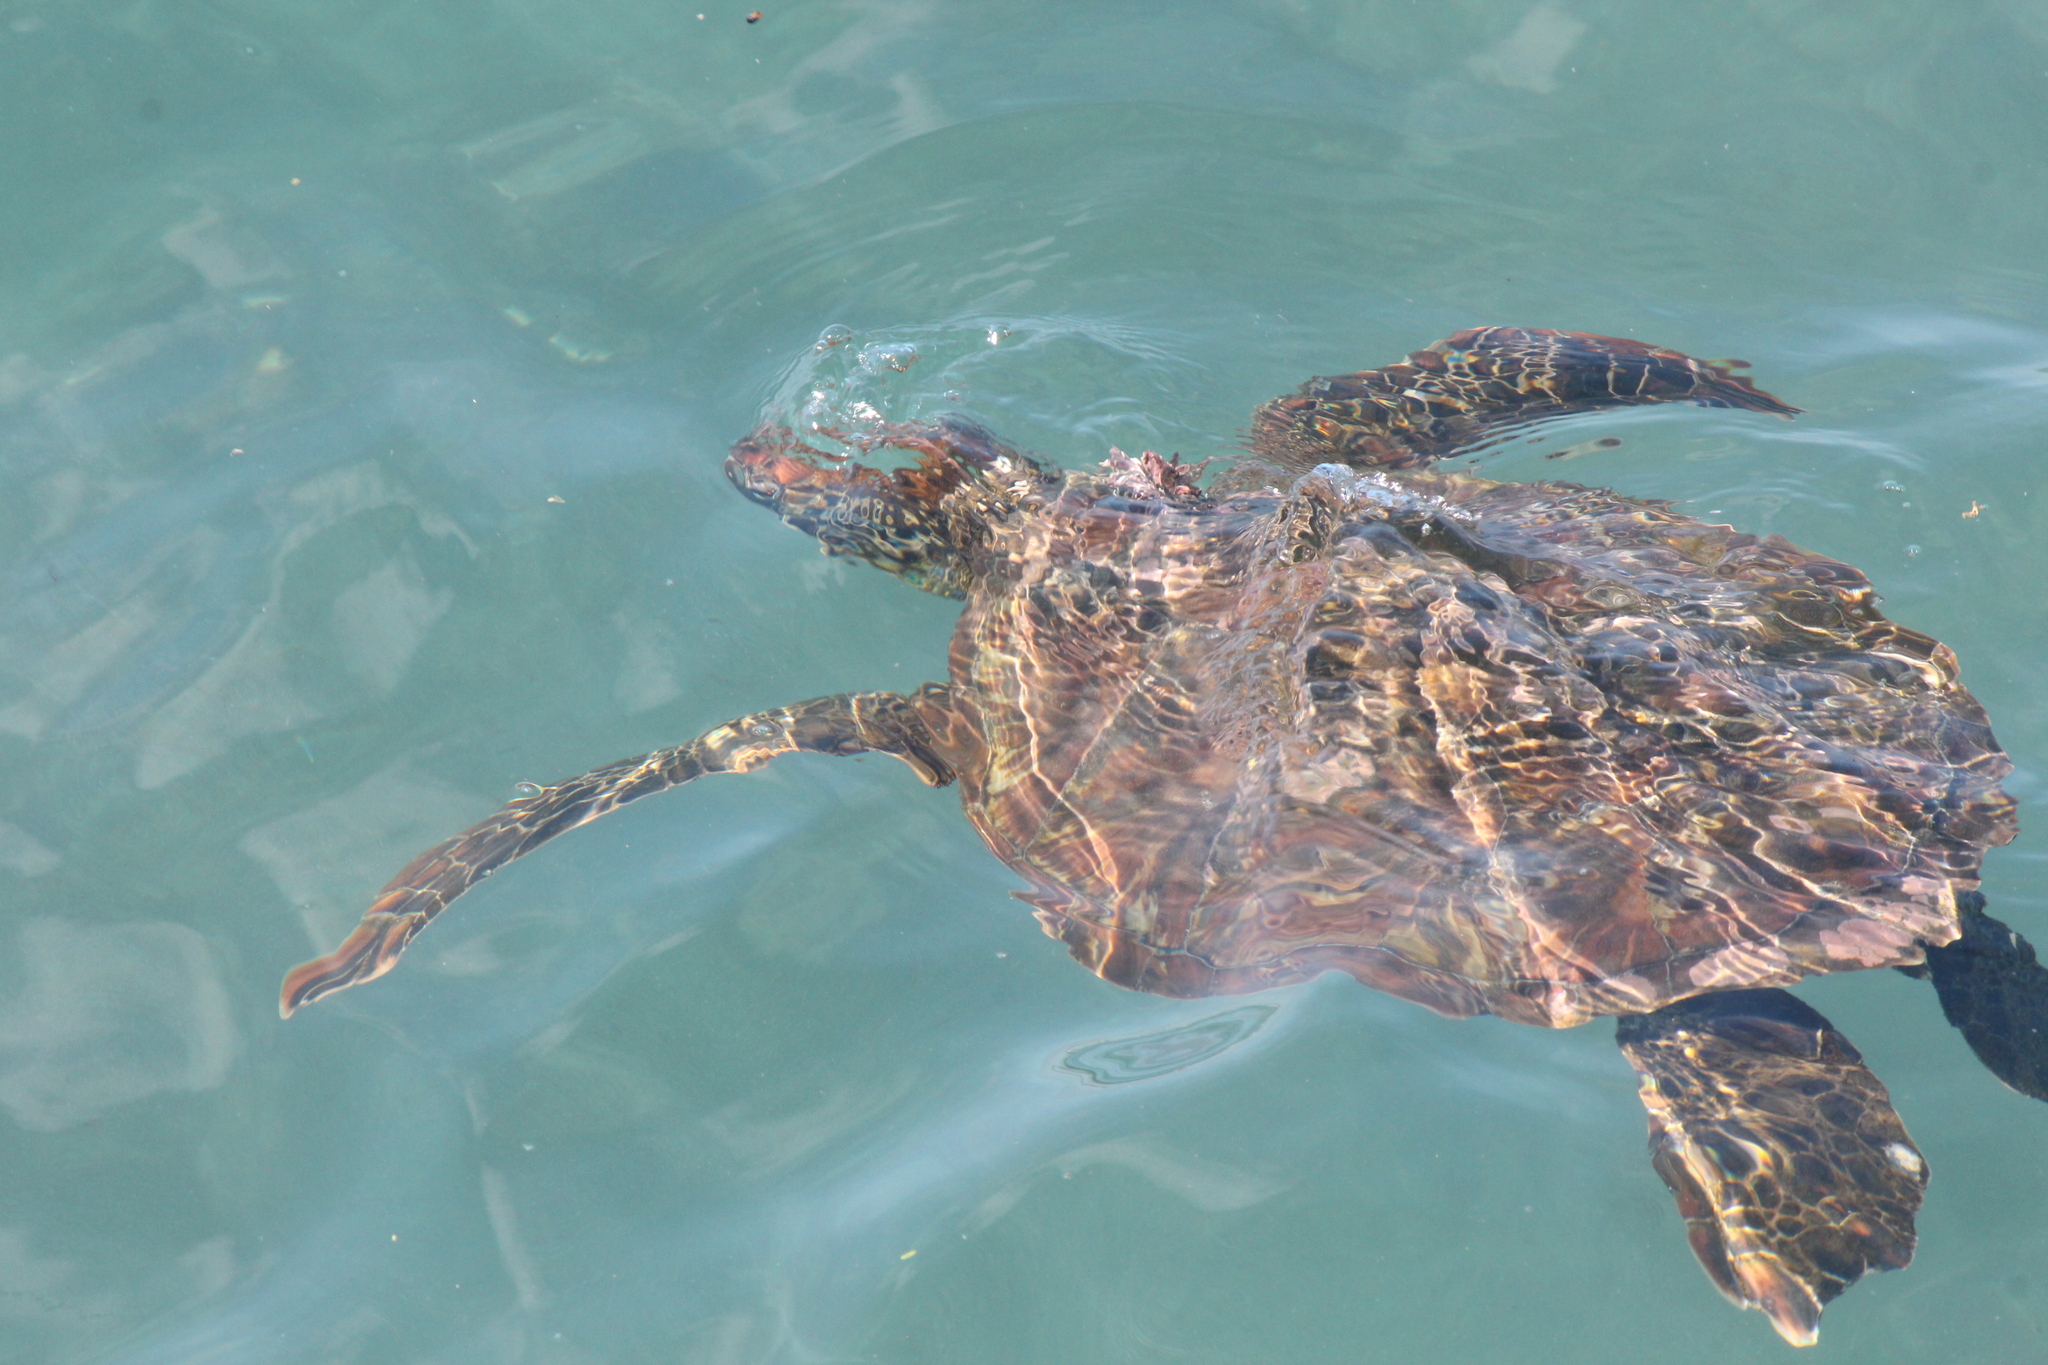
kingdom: Animalia
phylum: Chordata
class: Testudines
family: Cheloniidae
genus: Chelonia
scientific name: Chelonia mydas
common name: Green turtle
